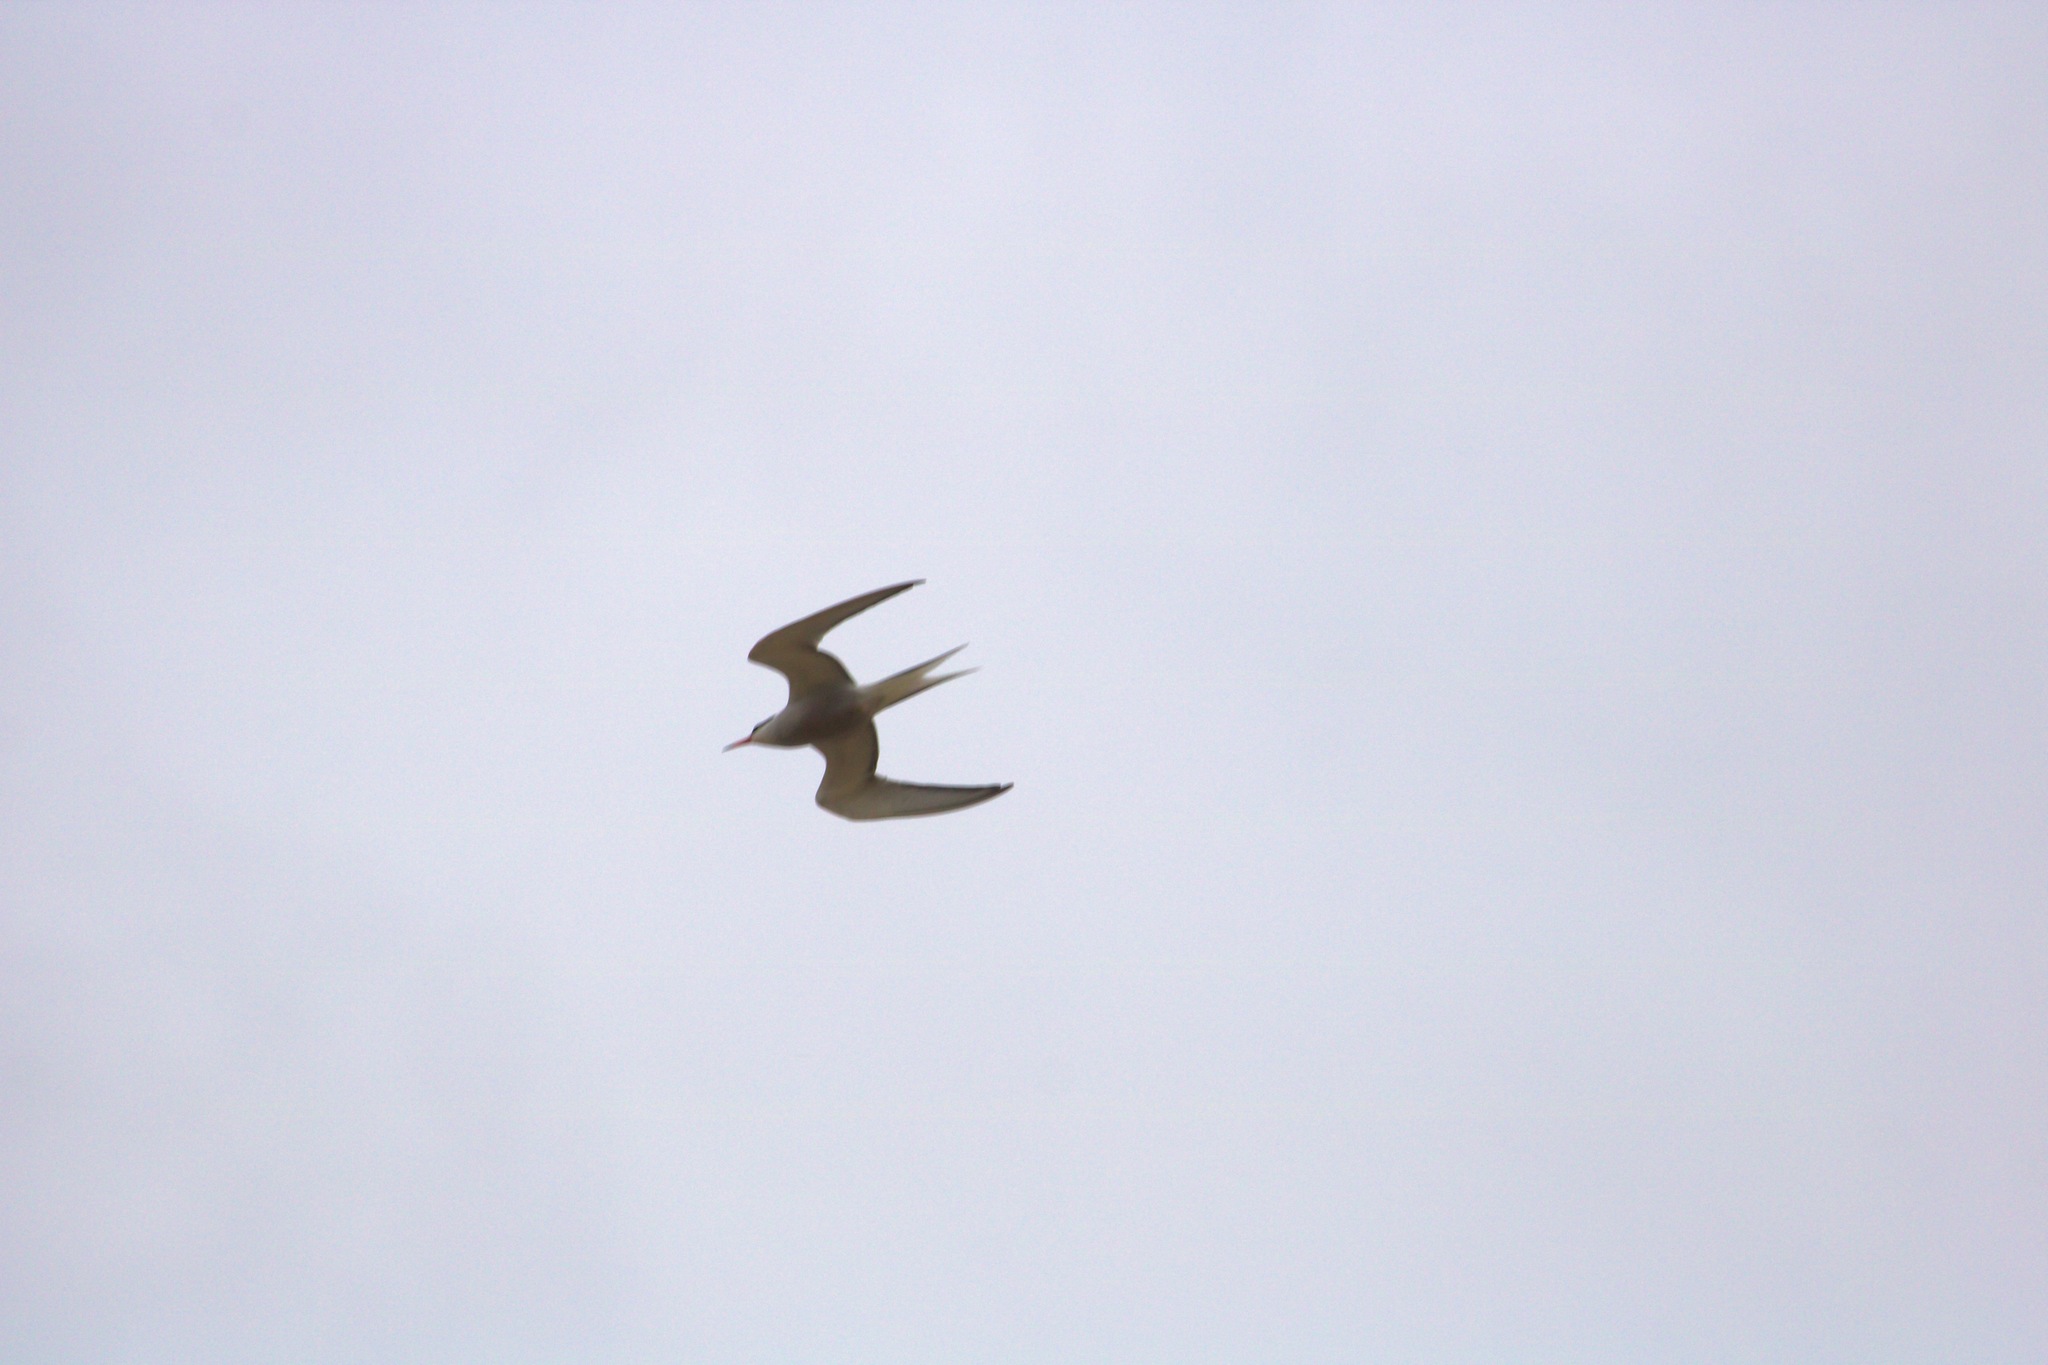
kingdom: Animalia
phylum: Chordata
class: Aves
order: Charadriiformes
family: Laridae
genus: Sterna
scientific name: Sterna hirundo
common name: Common tern
